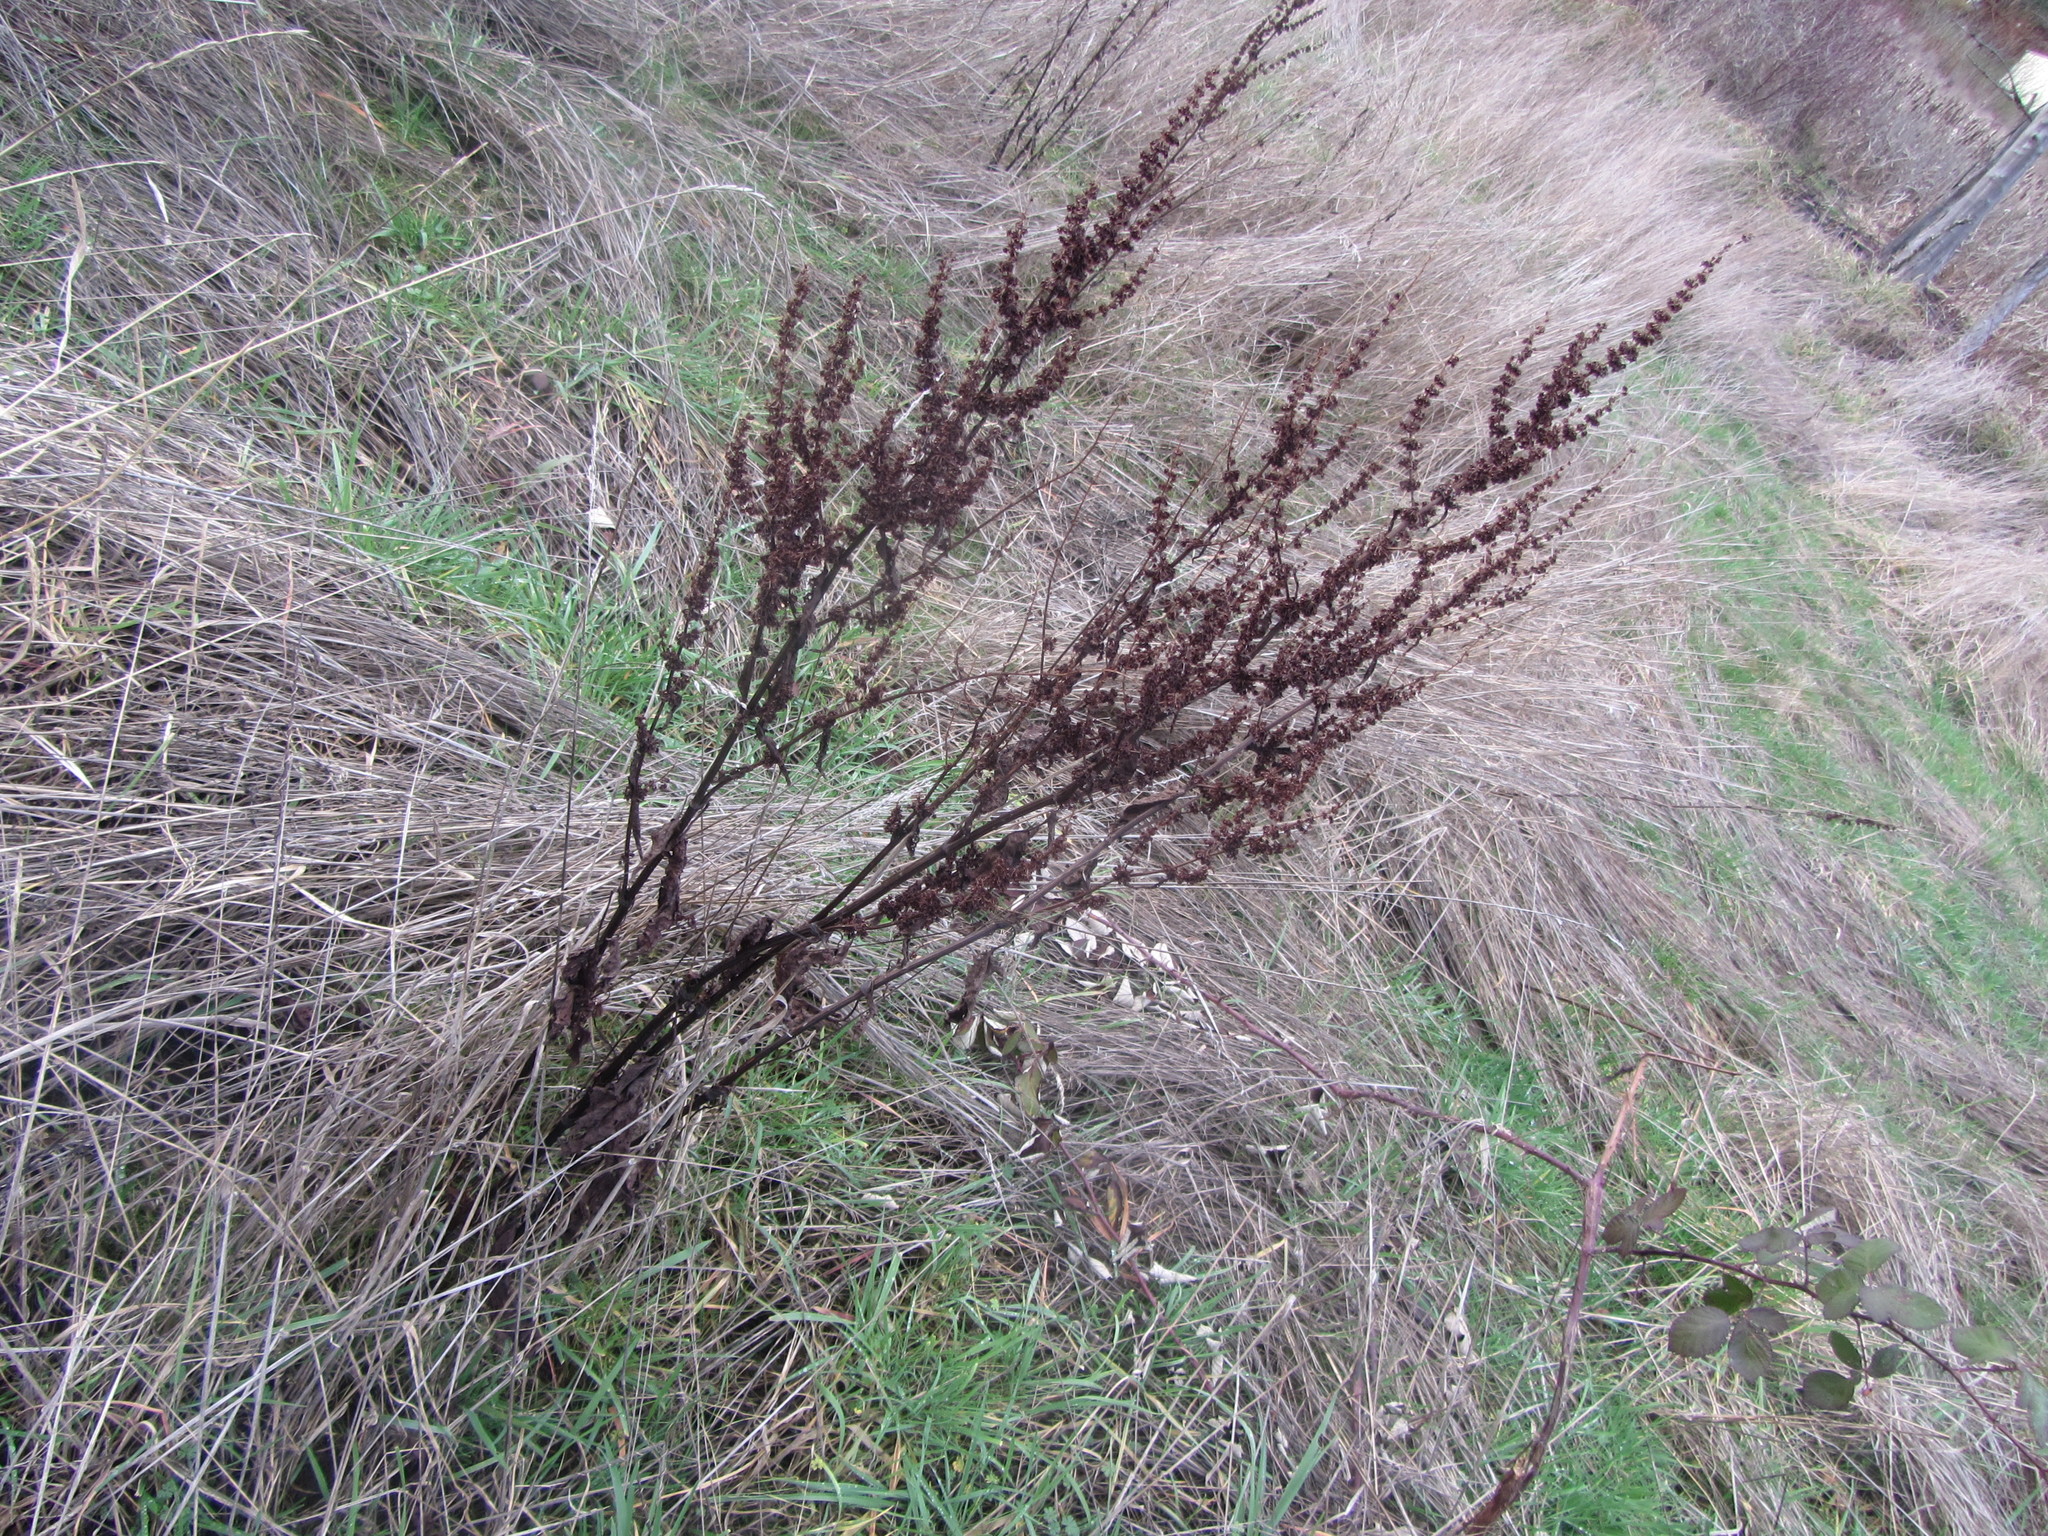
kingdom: Plantae
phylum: Tracheophyta
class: Magnoliopsida
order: Caryophyllales
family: Polygonaceae
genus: Rumex
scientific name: Rumex crispus
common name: Curled dock
